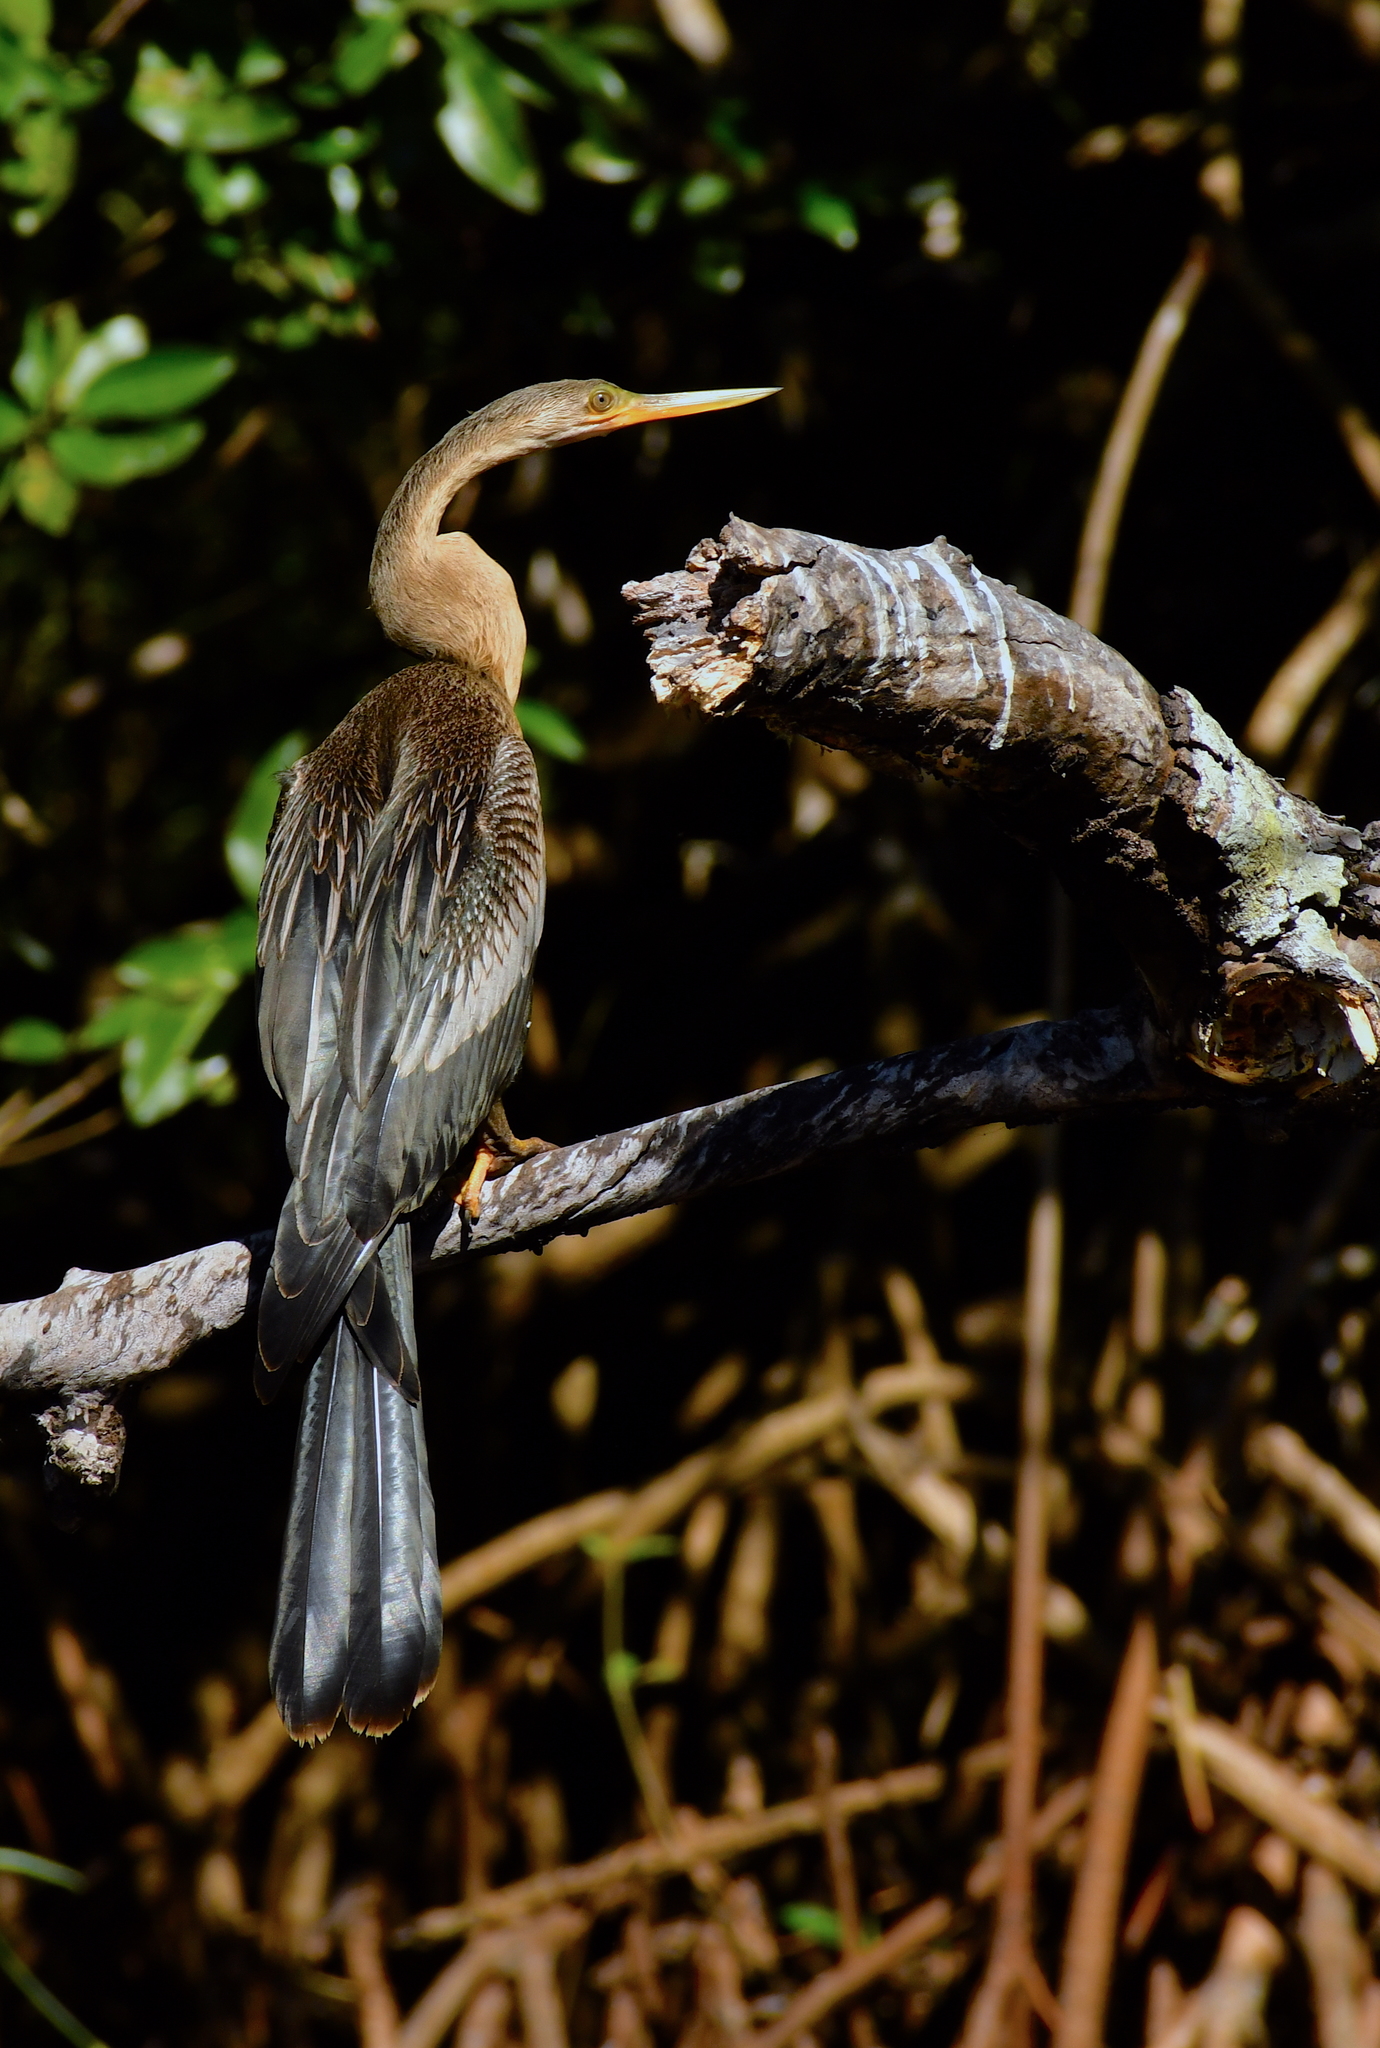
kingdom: Animalia
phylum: Chordata
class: Aves
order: Suliformes
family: Anhingidae
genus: Anhinga
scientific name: Anhinga anhinga
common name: Anhinga
